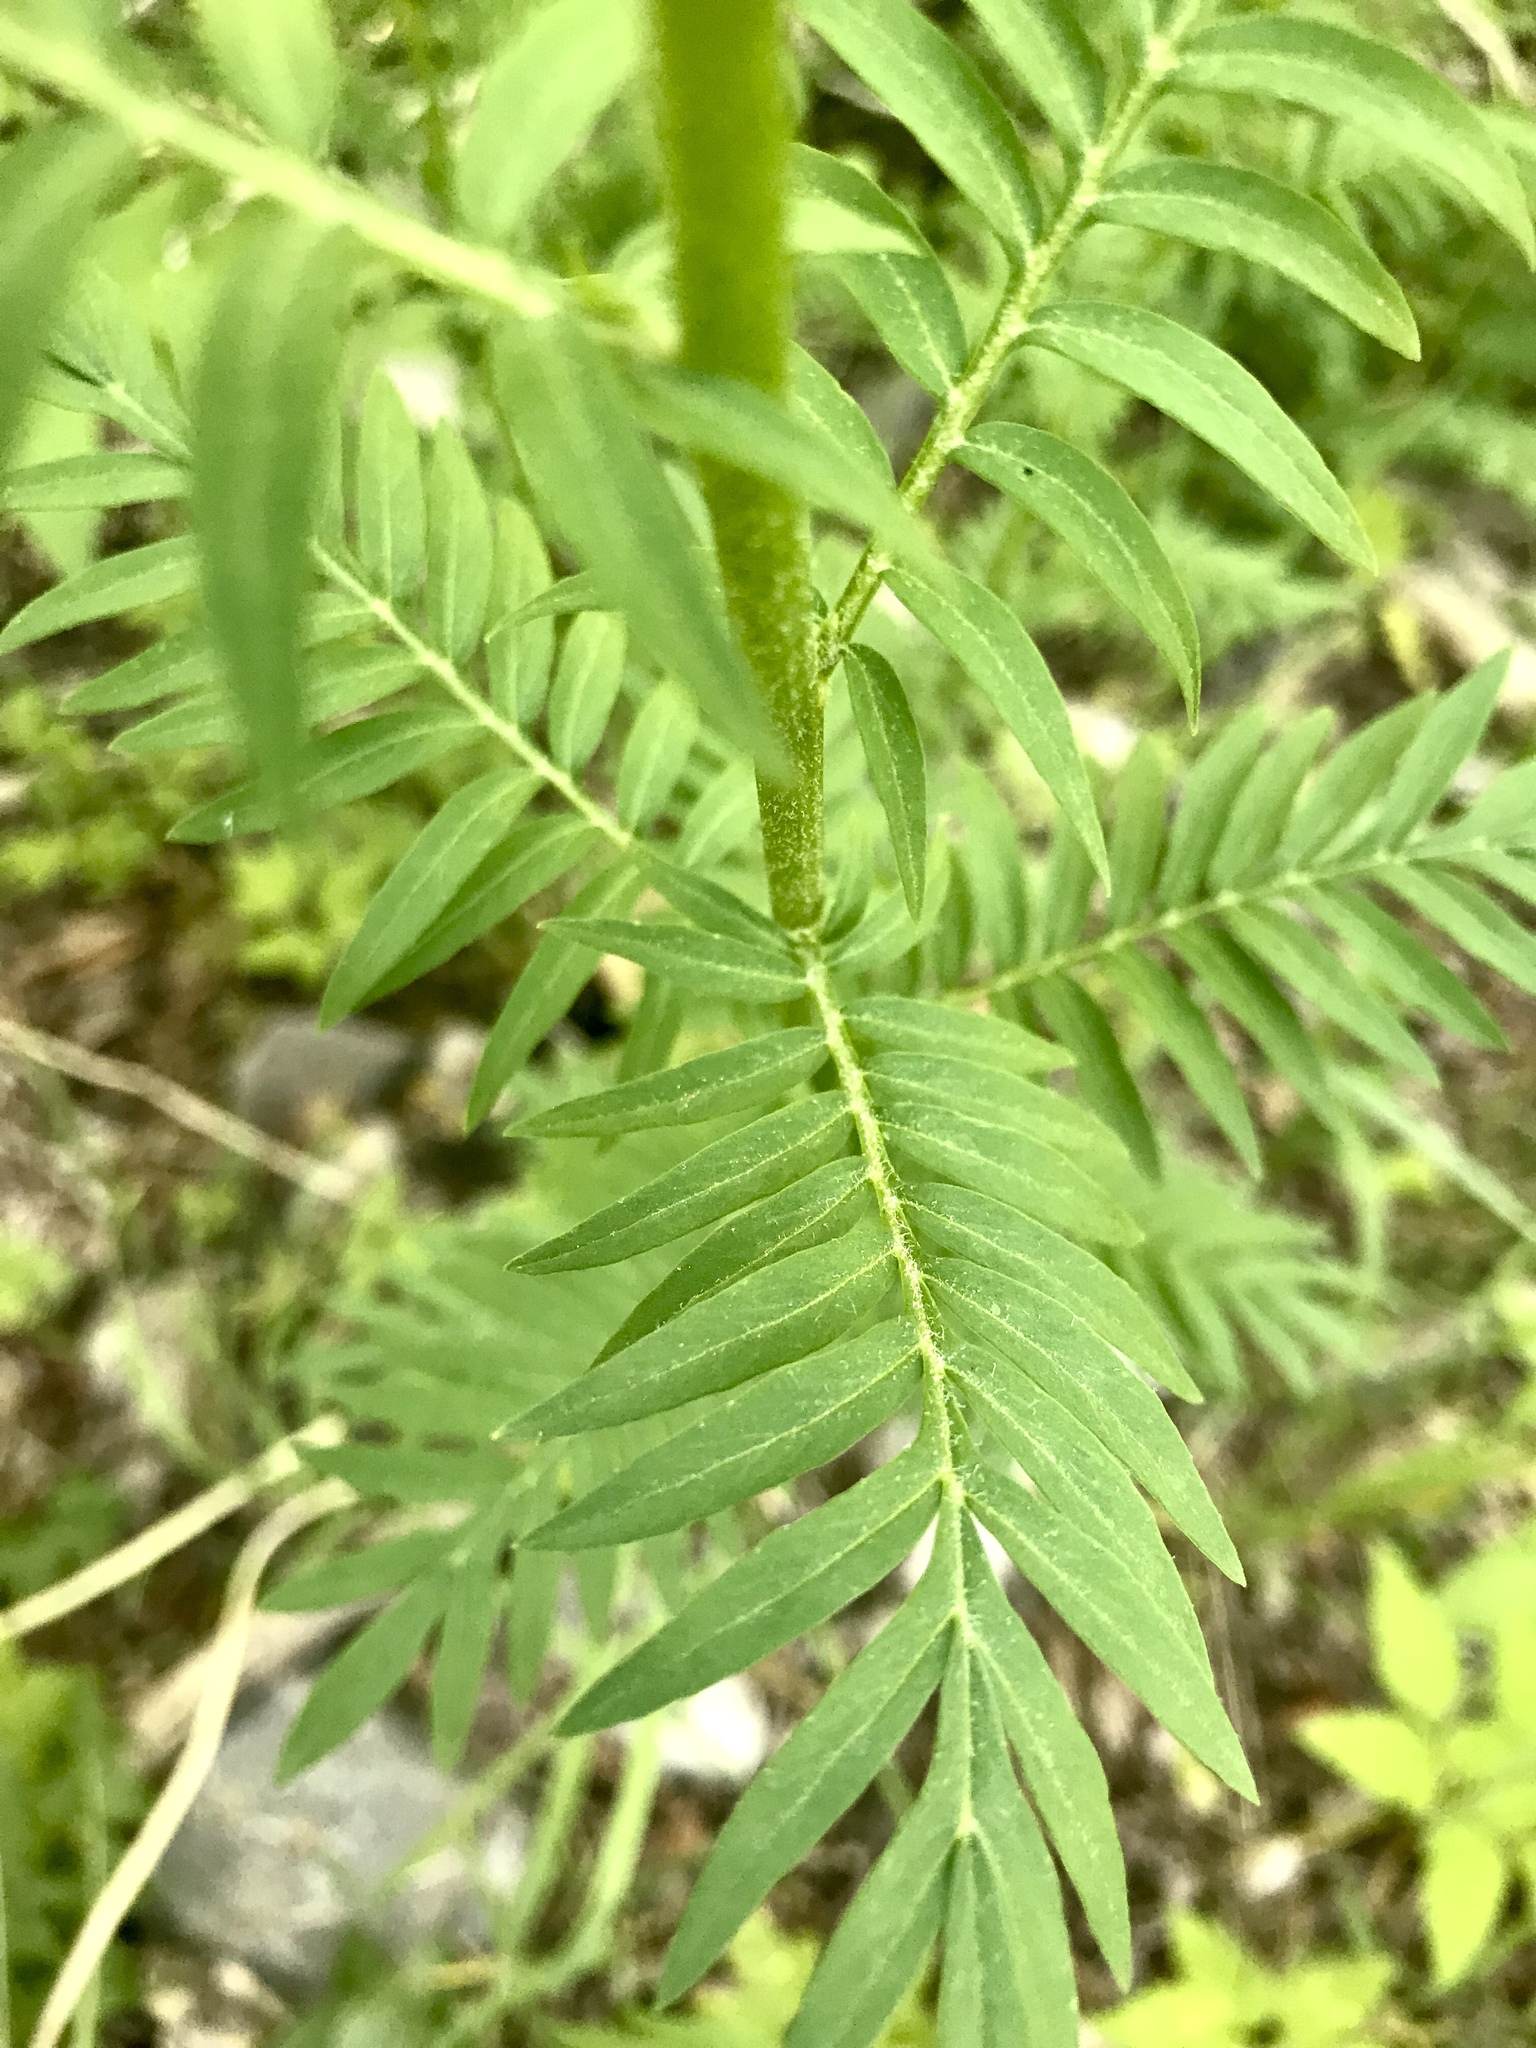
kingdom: Plantae
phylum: Tracheophyta
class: Magnoliopsida
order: Ericales
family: Polemoniaceae
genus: Polemonium
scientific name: Polemonium foliosissimum
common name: Leafy jacob's-ladder
